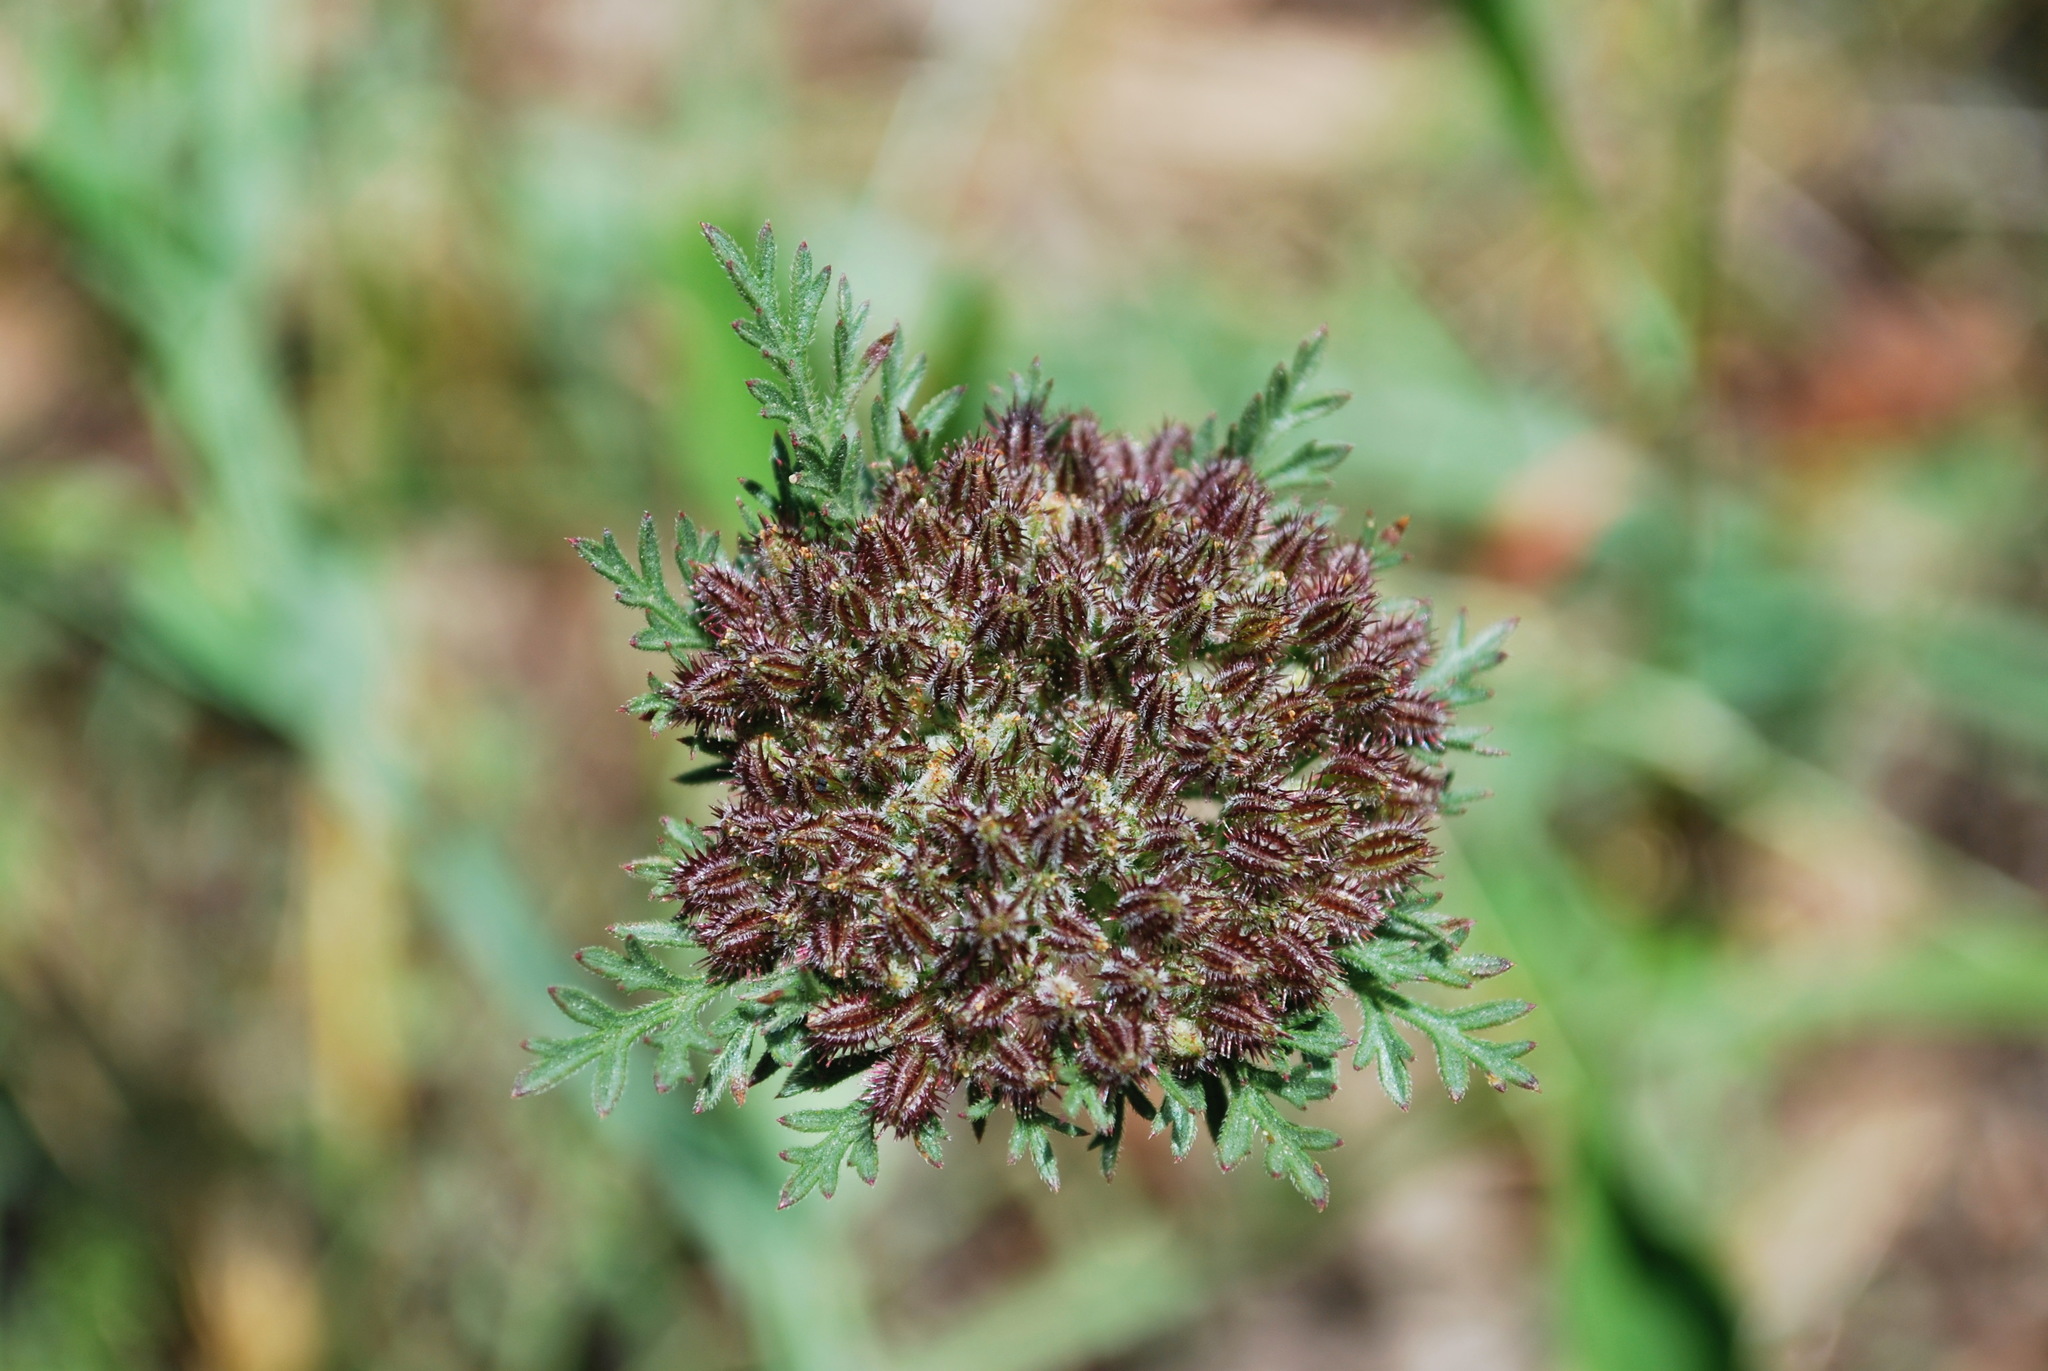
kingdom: Plantae
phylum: Tracheophyta
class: Magnoliopsida
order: Apiales
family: Apiaceae
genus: Daucus
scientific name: Daucus pusillus
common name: Southwest wild carrot
